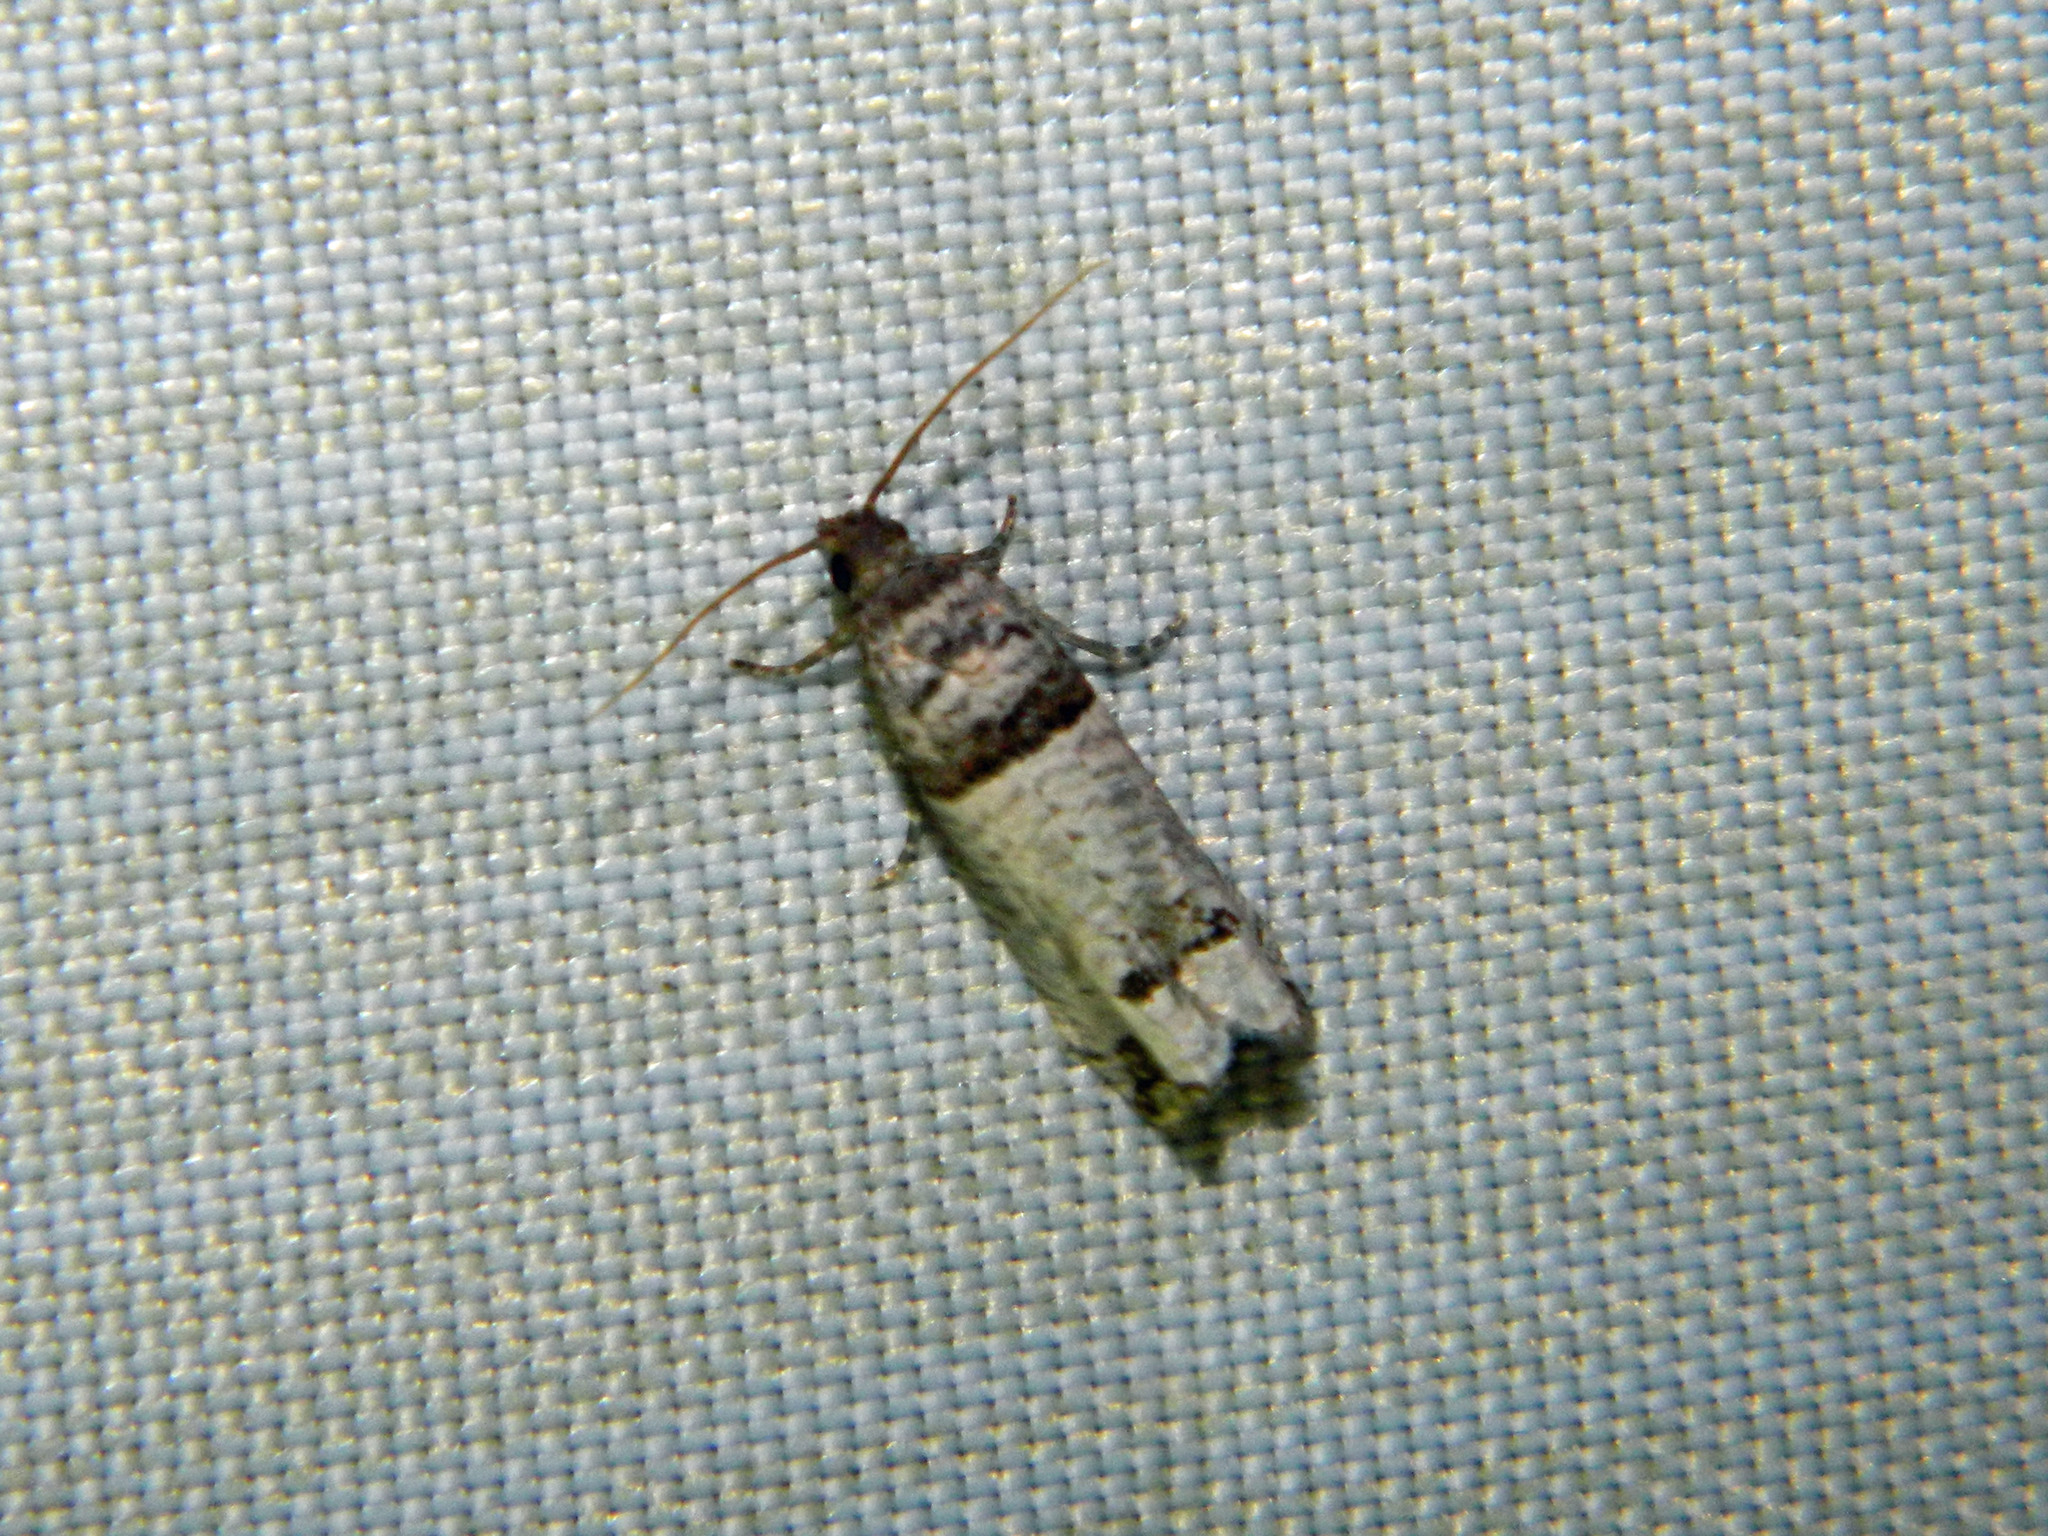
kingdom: Animalia
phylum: Arthropoda
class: Insecta
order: Lepidoptera
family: Tortricidae
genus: Notocelia
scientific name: Notocelia culminana
